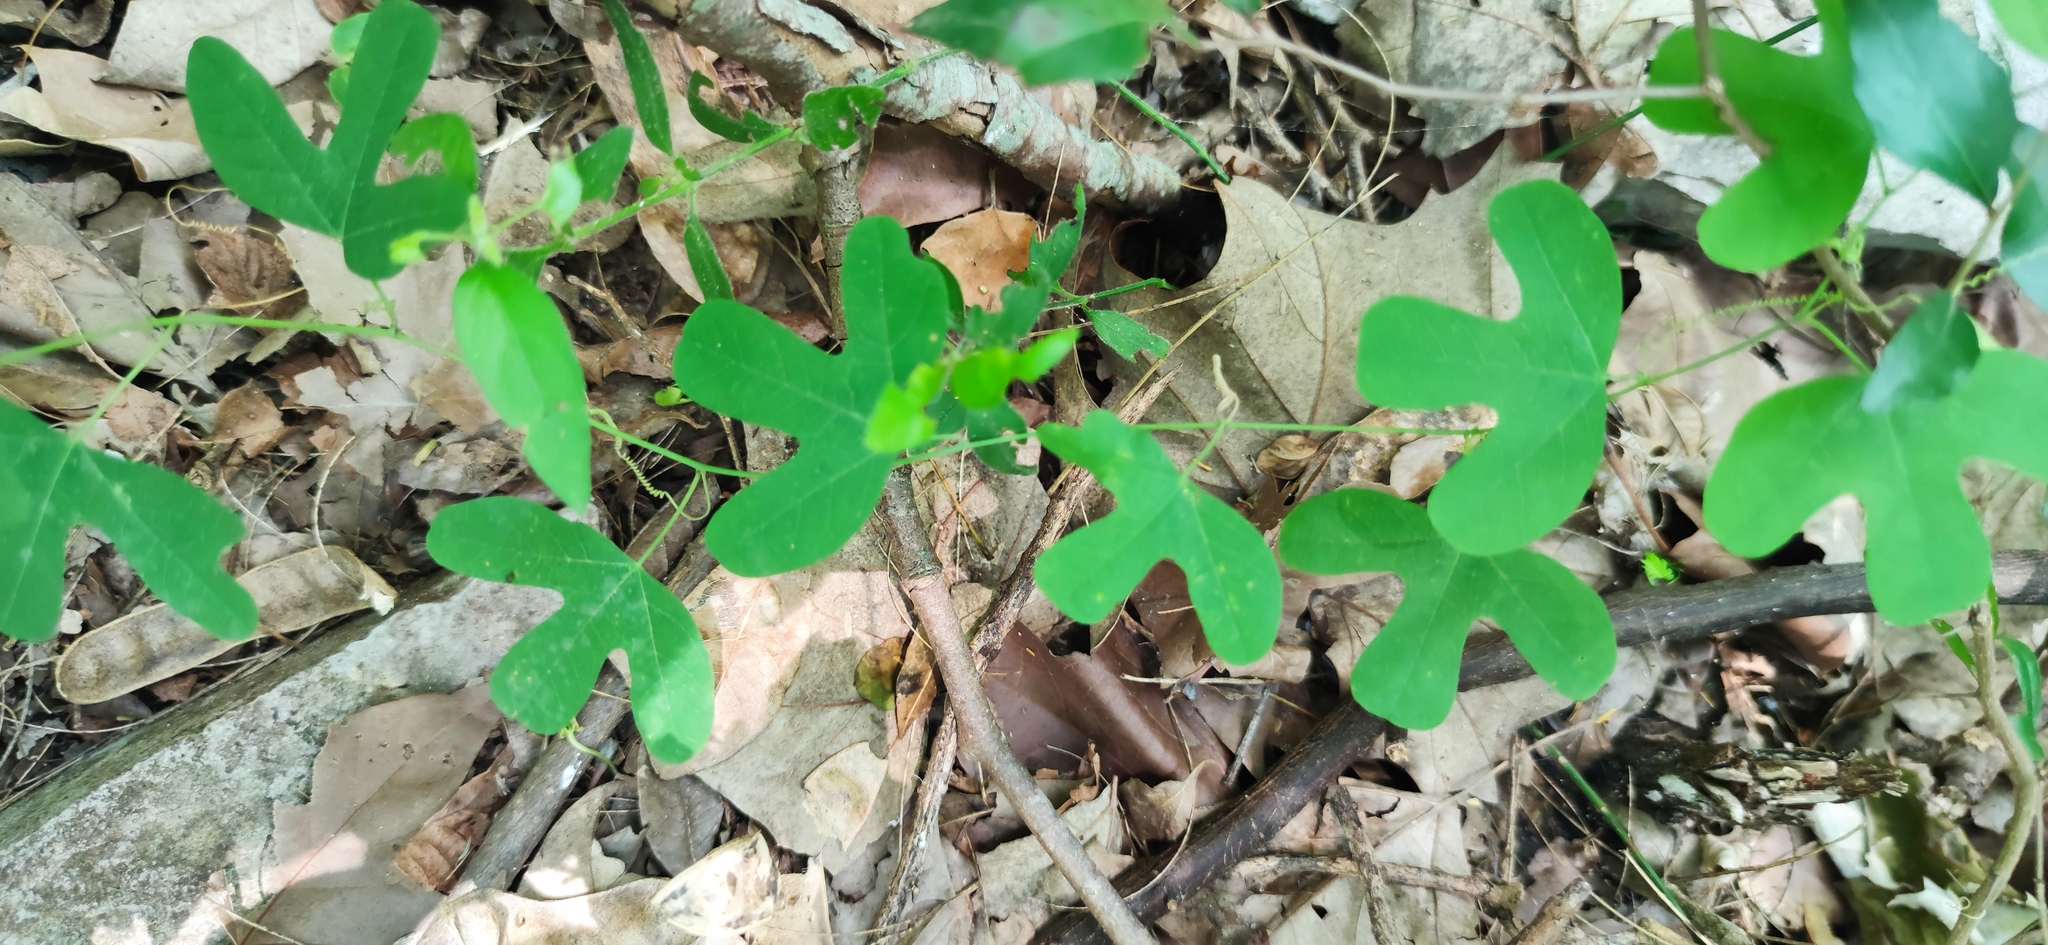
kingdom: Plantae
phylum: Tracheophyta
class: Magnoliopsida
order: Malpighiales
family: Passifloraceae
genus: Passiflora
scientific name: Passiflora affinis
